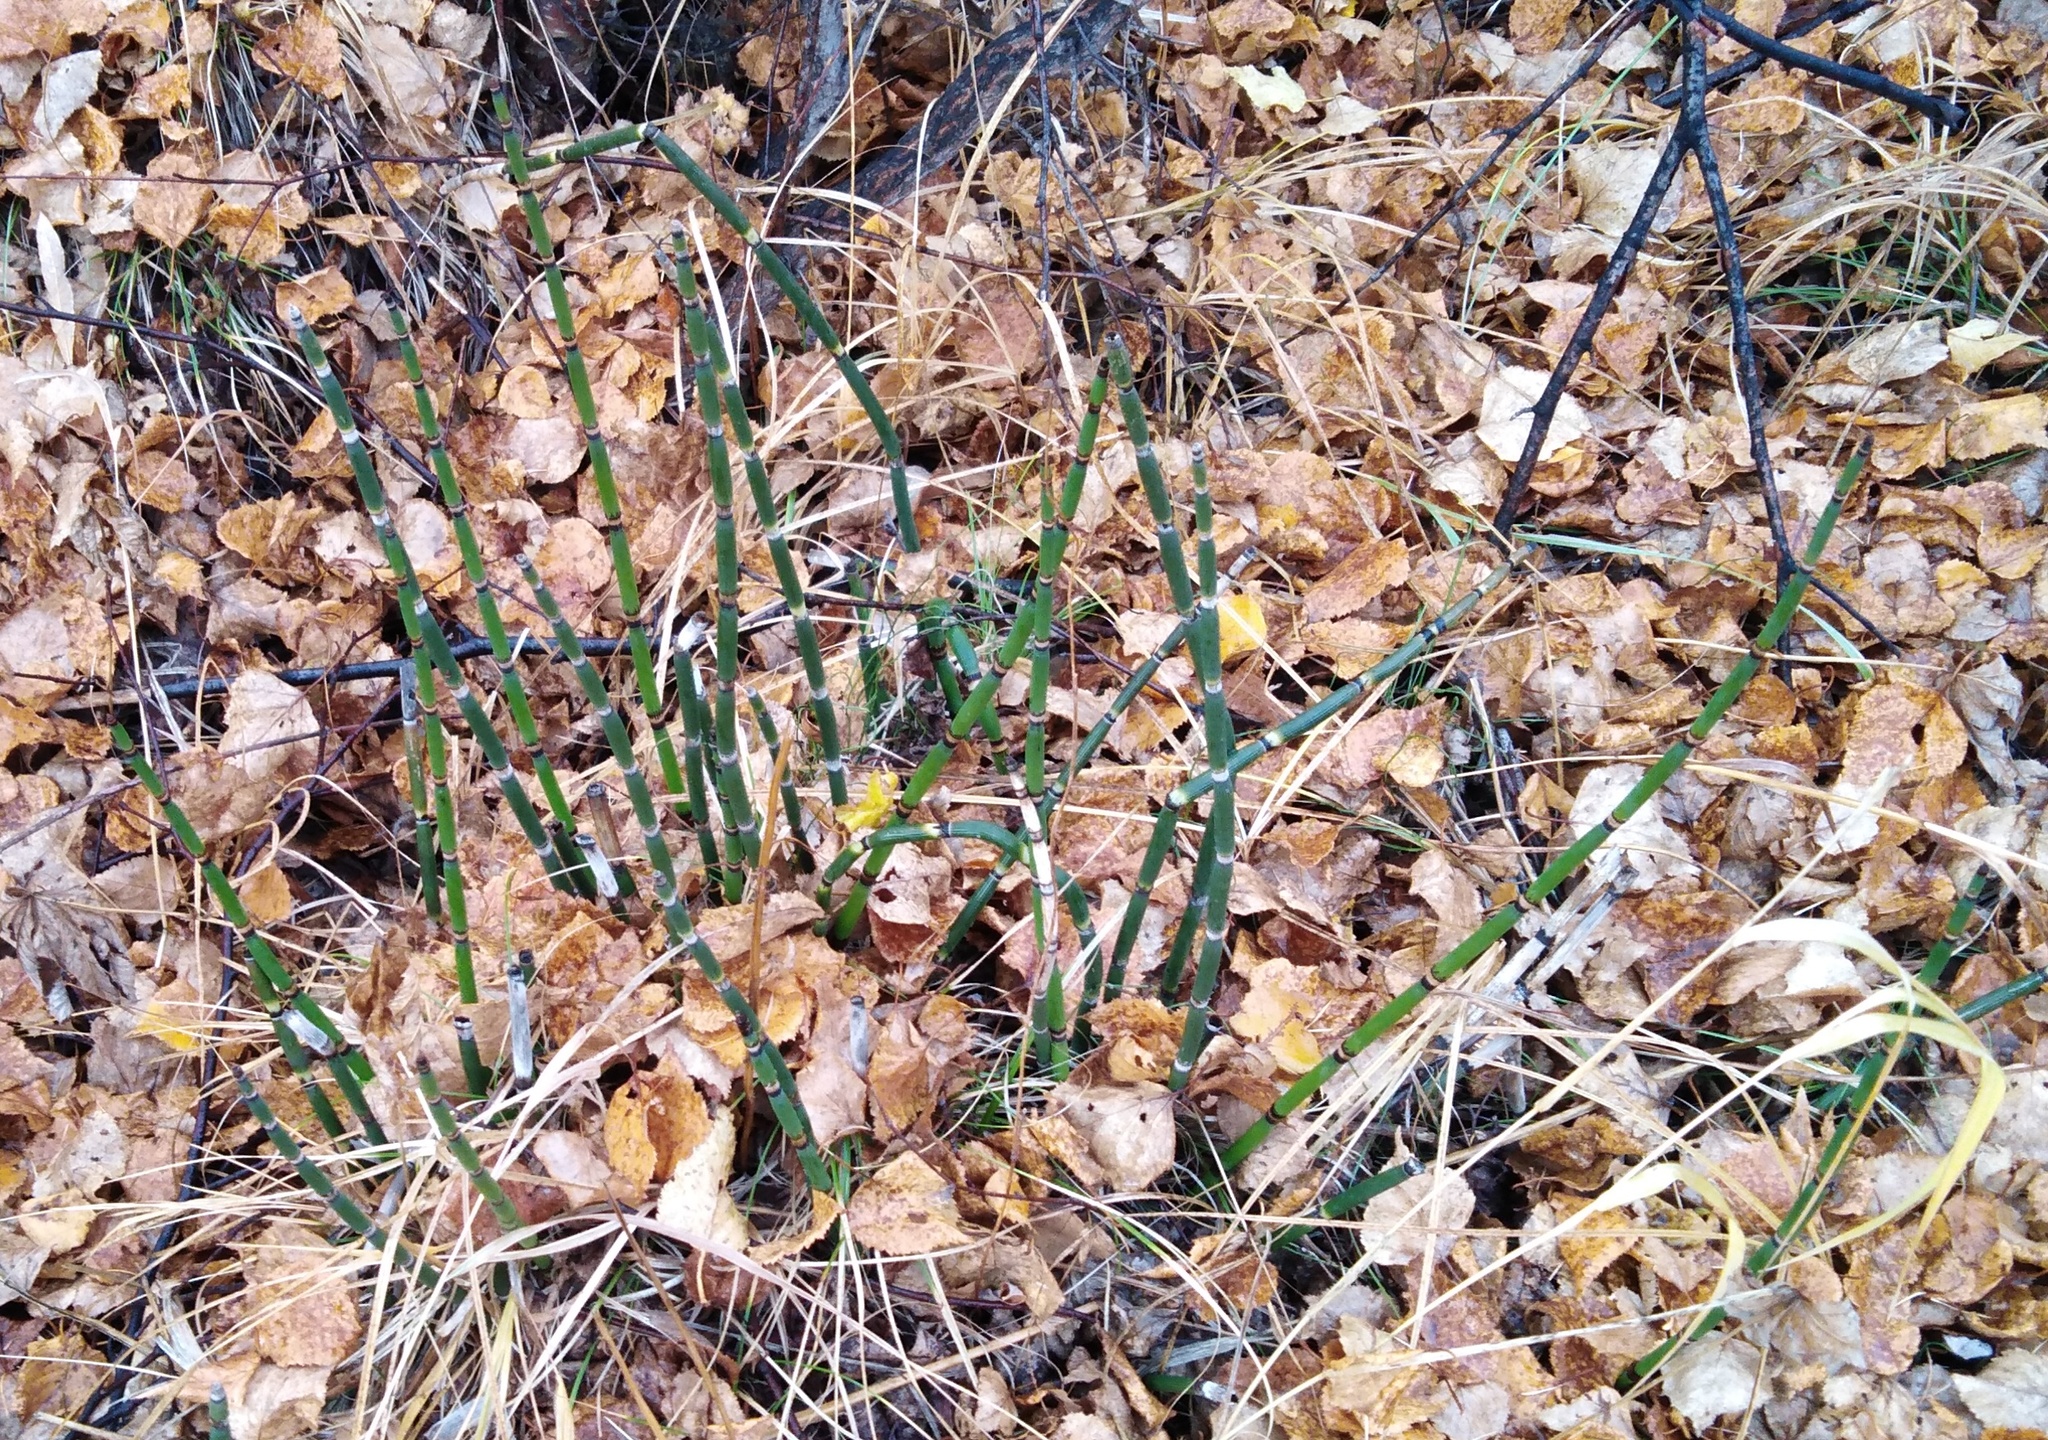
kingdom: Plantae
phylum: Tracheophyta
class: Polypodiopsida
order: Equisetales
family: Equisetaceae
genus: Equisetum
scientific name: Equisetum hyemale
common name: Rough horsetail
